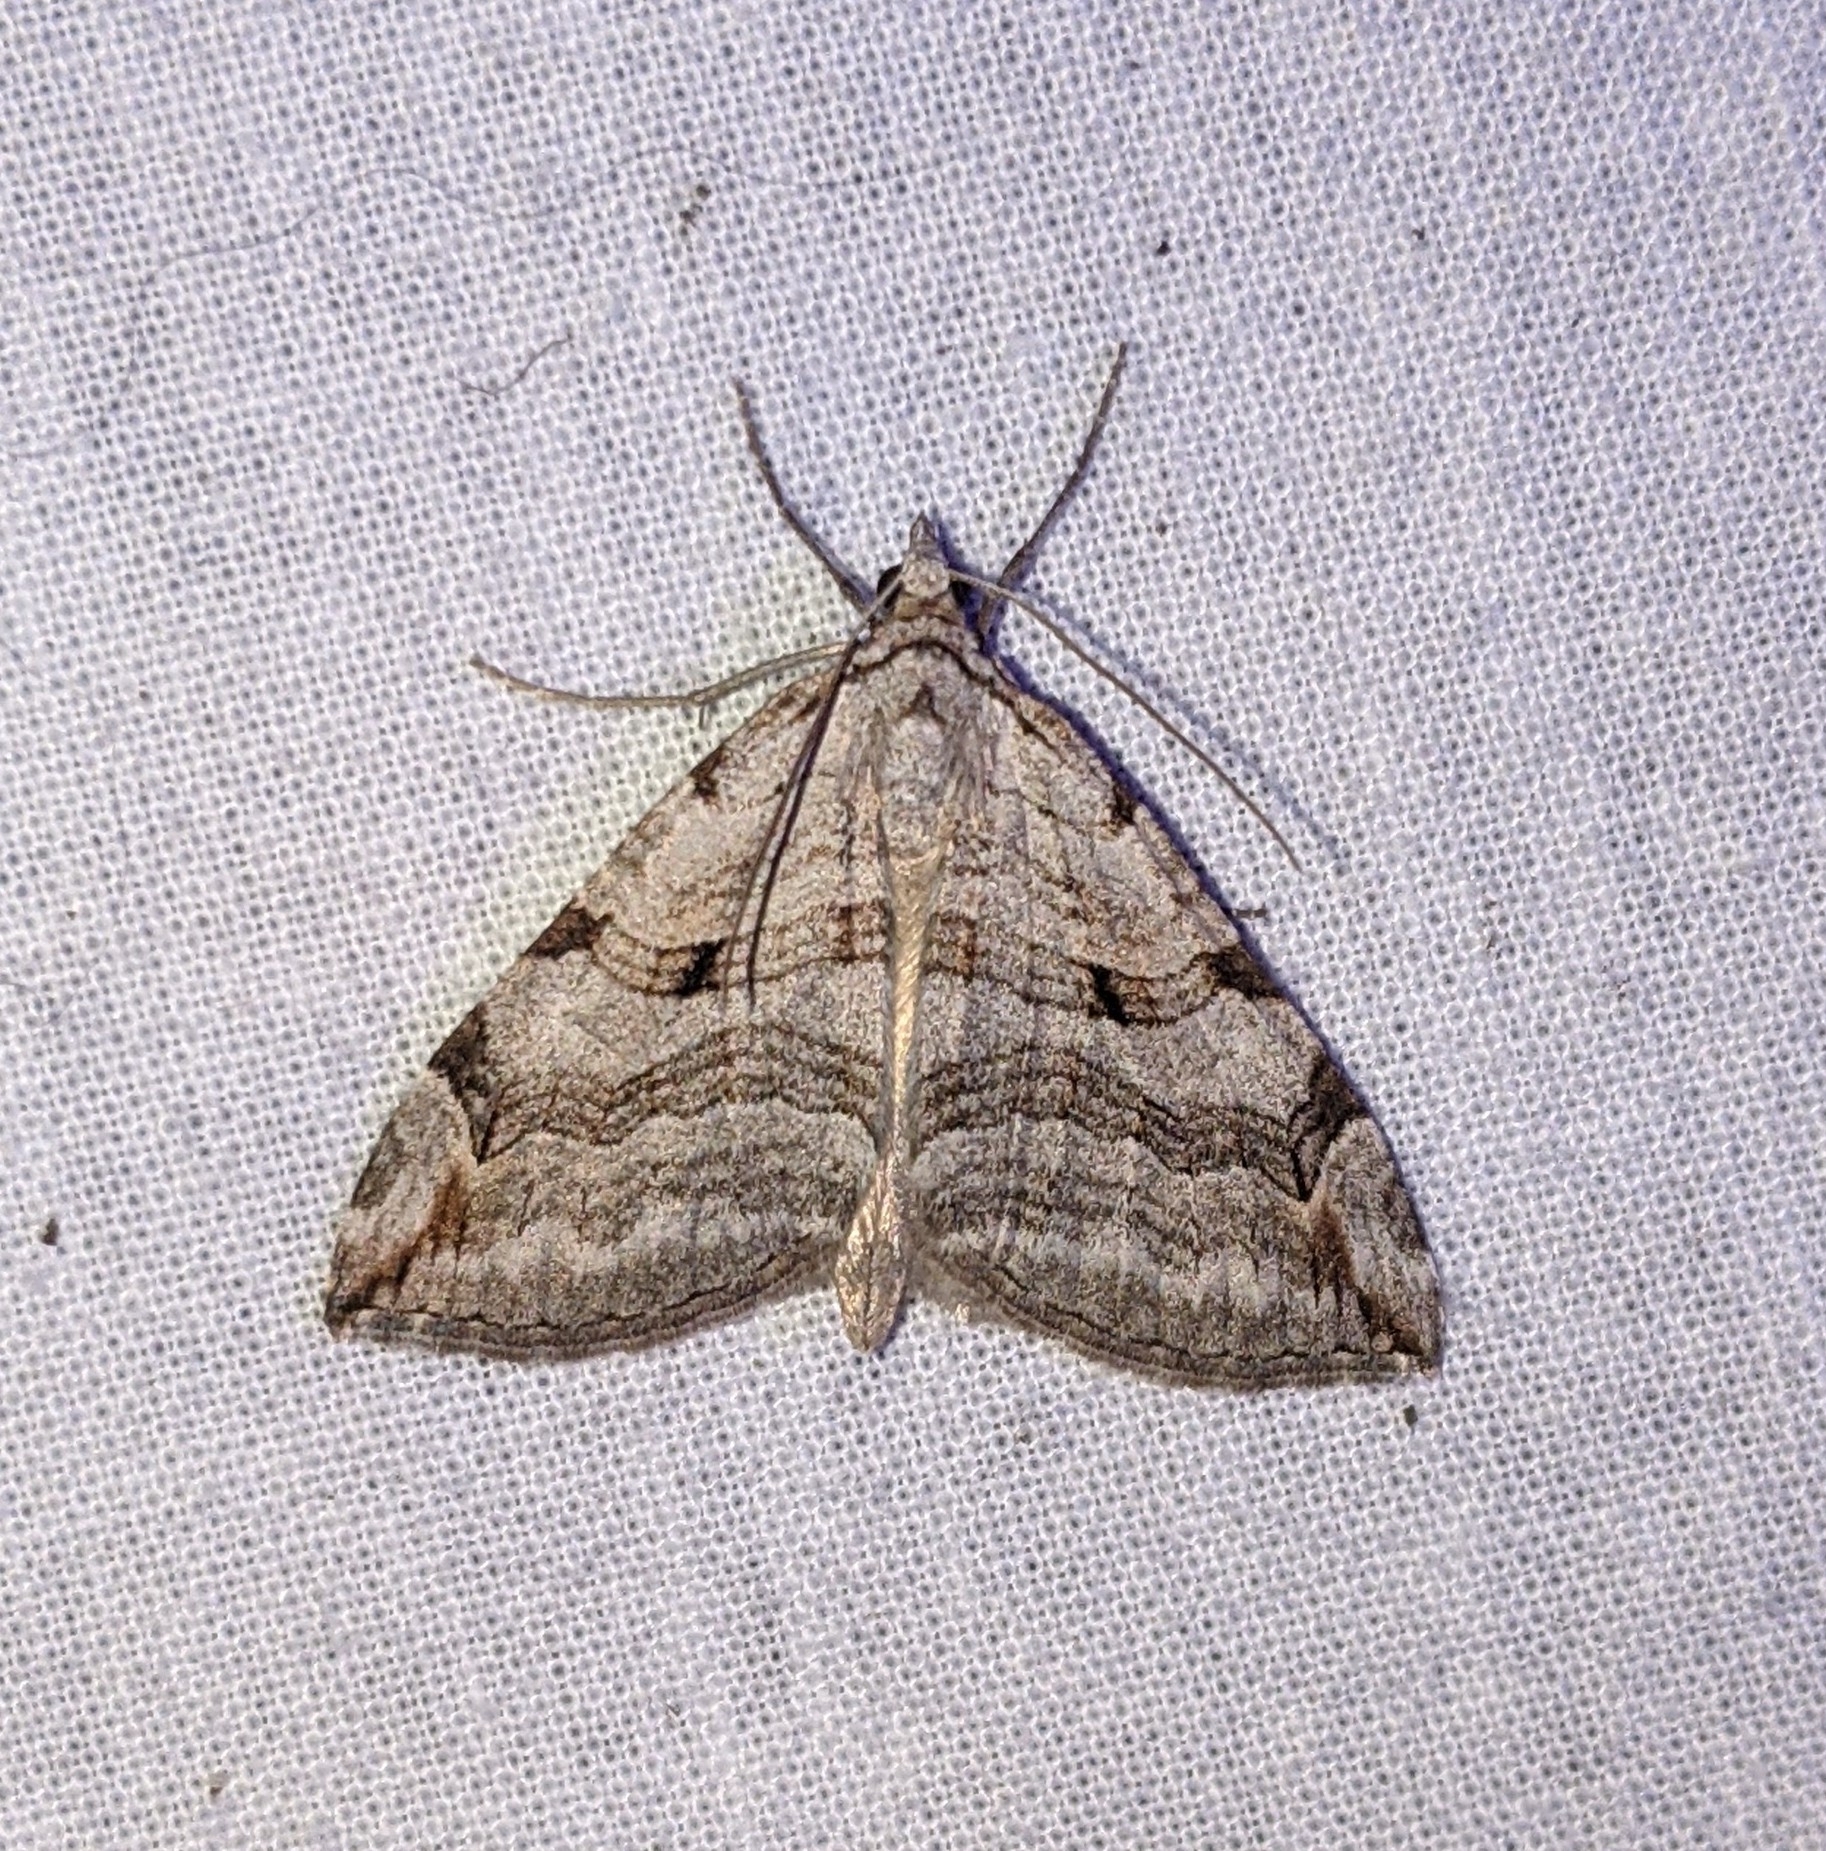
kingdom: Animalia
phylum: Arthropoda
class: Insecta
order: Lepidoptera
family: Geometridae
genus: Aplocera
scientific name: Aplocera plagiata
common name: Treble-bar
